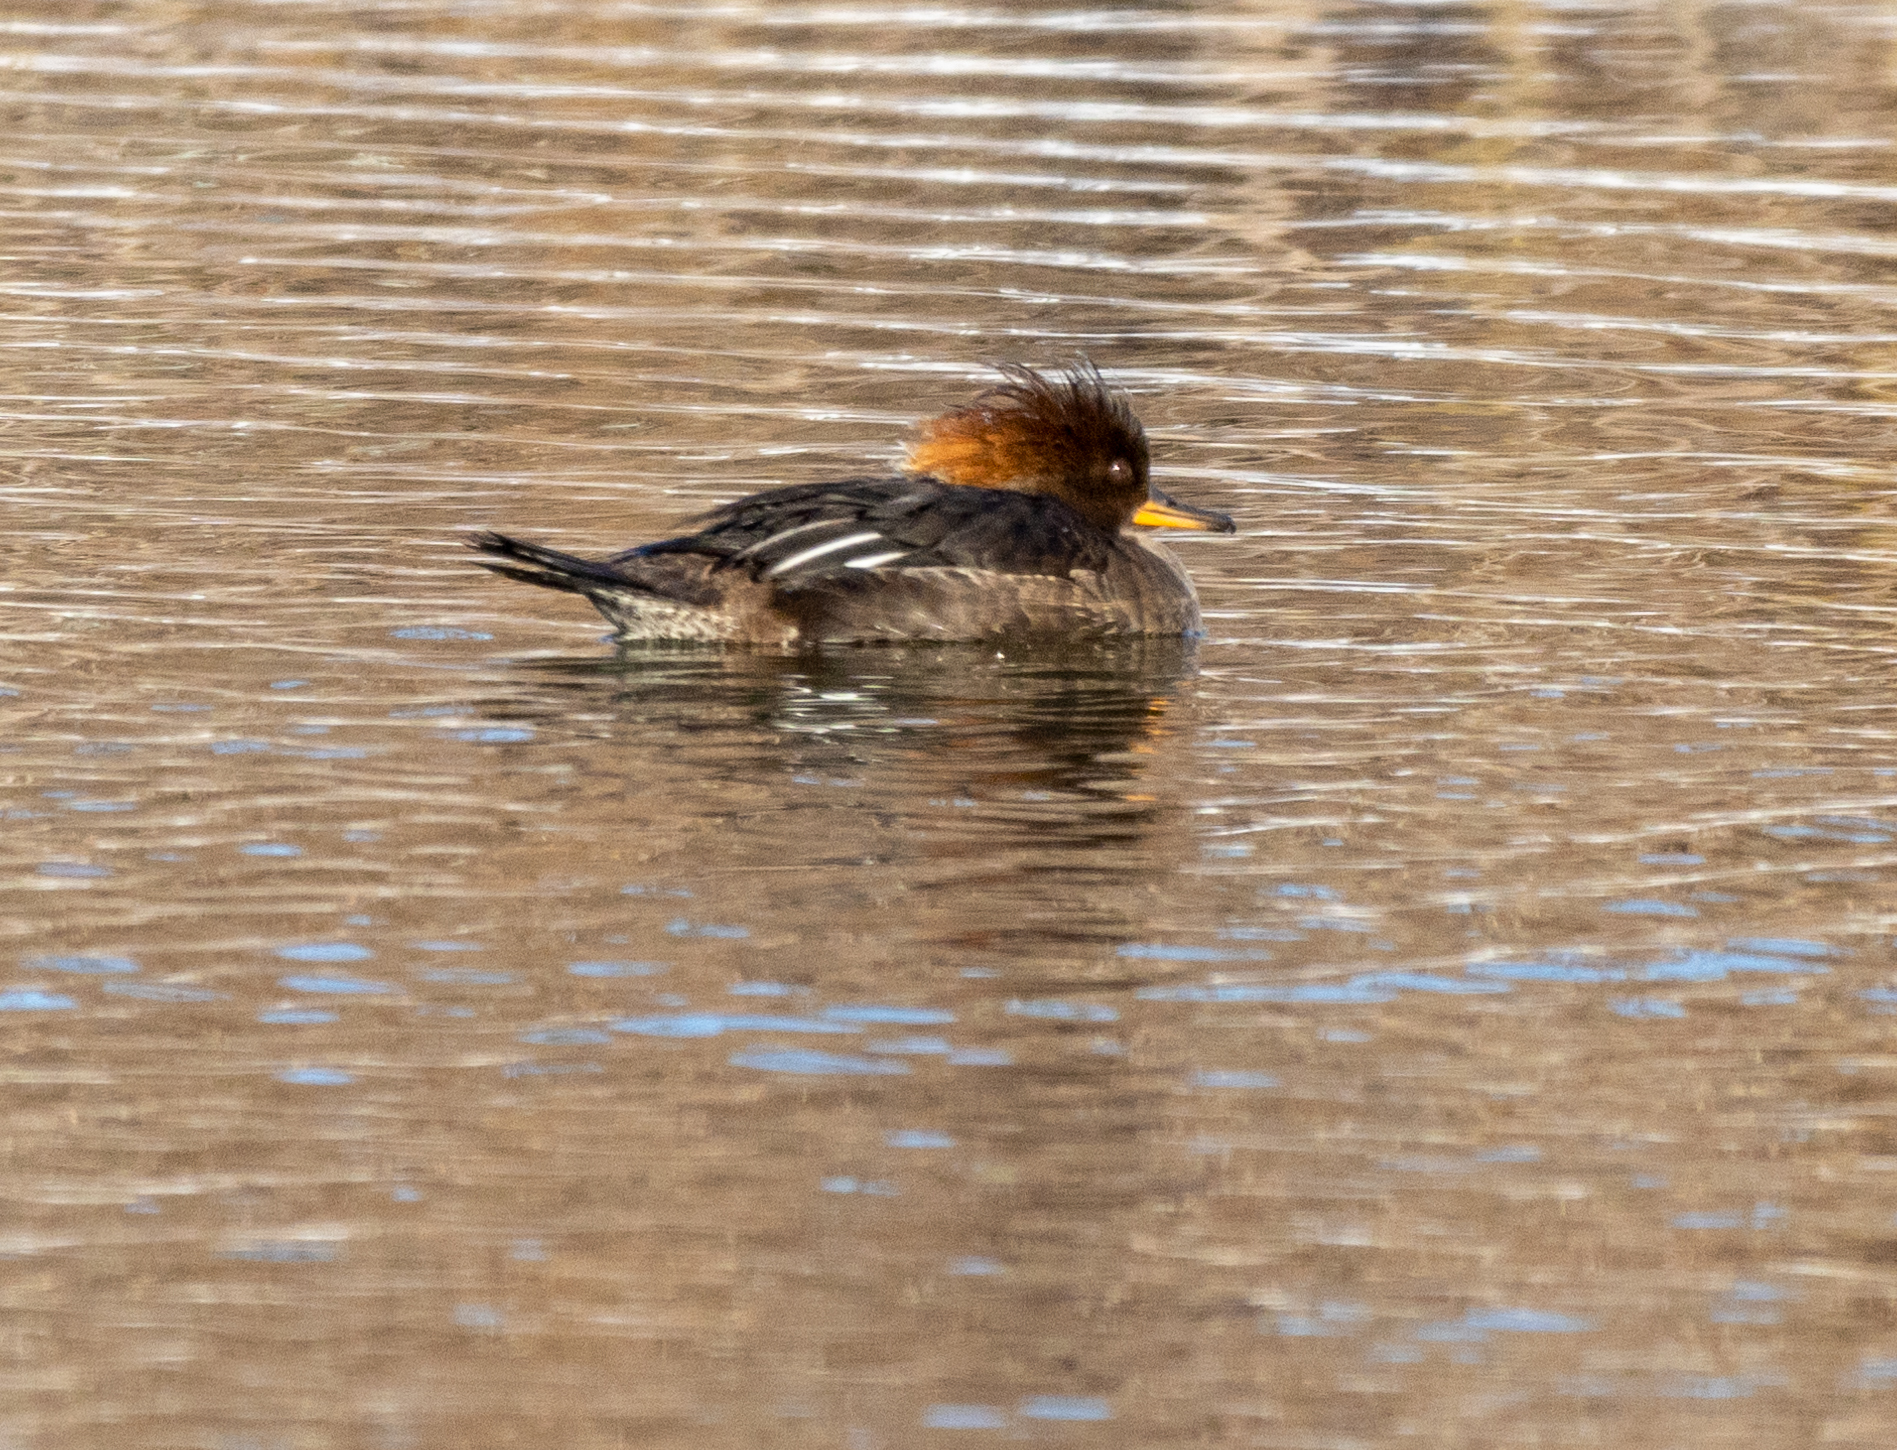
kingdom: Animalia
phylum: Chordata
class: Aves
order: Anseriformes
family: Anatidae
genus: Lophodytes
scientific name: Lophodytes cucullatus
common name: Hooded merganser
